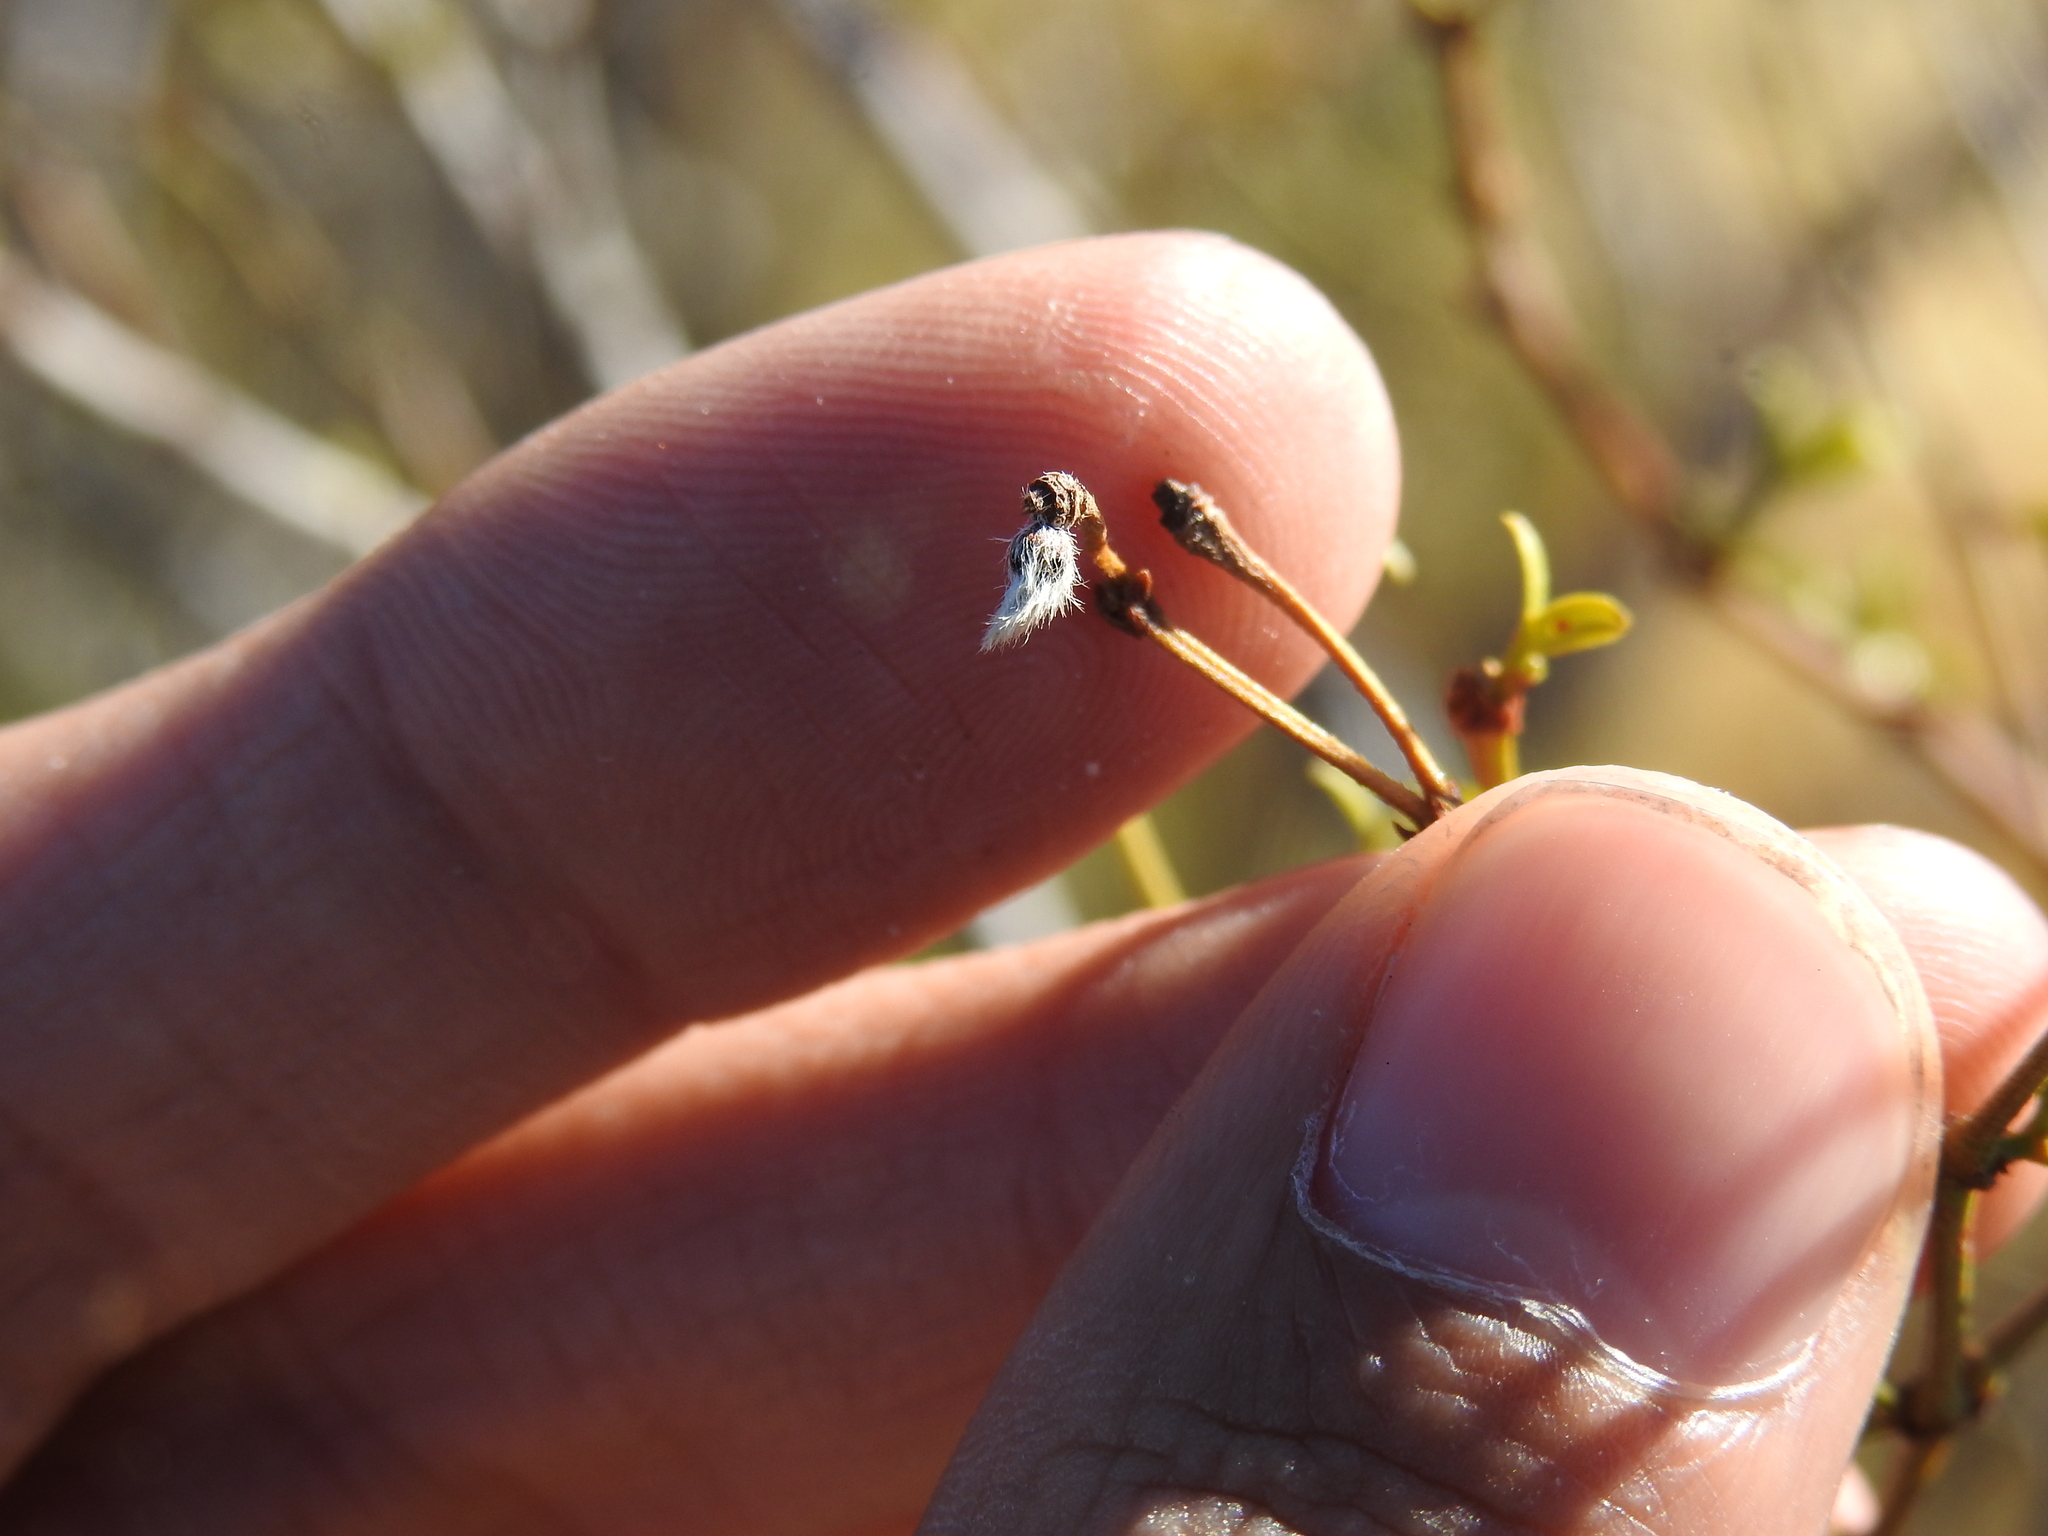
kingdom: Animalia
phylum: Arthropoda
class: Insecta
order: Diptera
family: Cecidomyiidae
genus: Asphondylia
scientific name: Asphondylia florea
